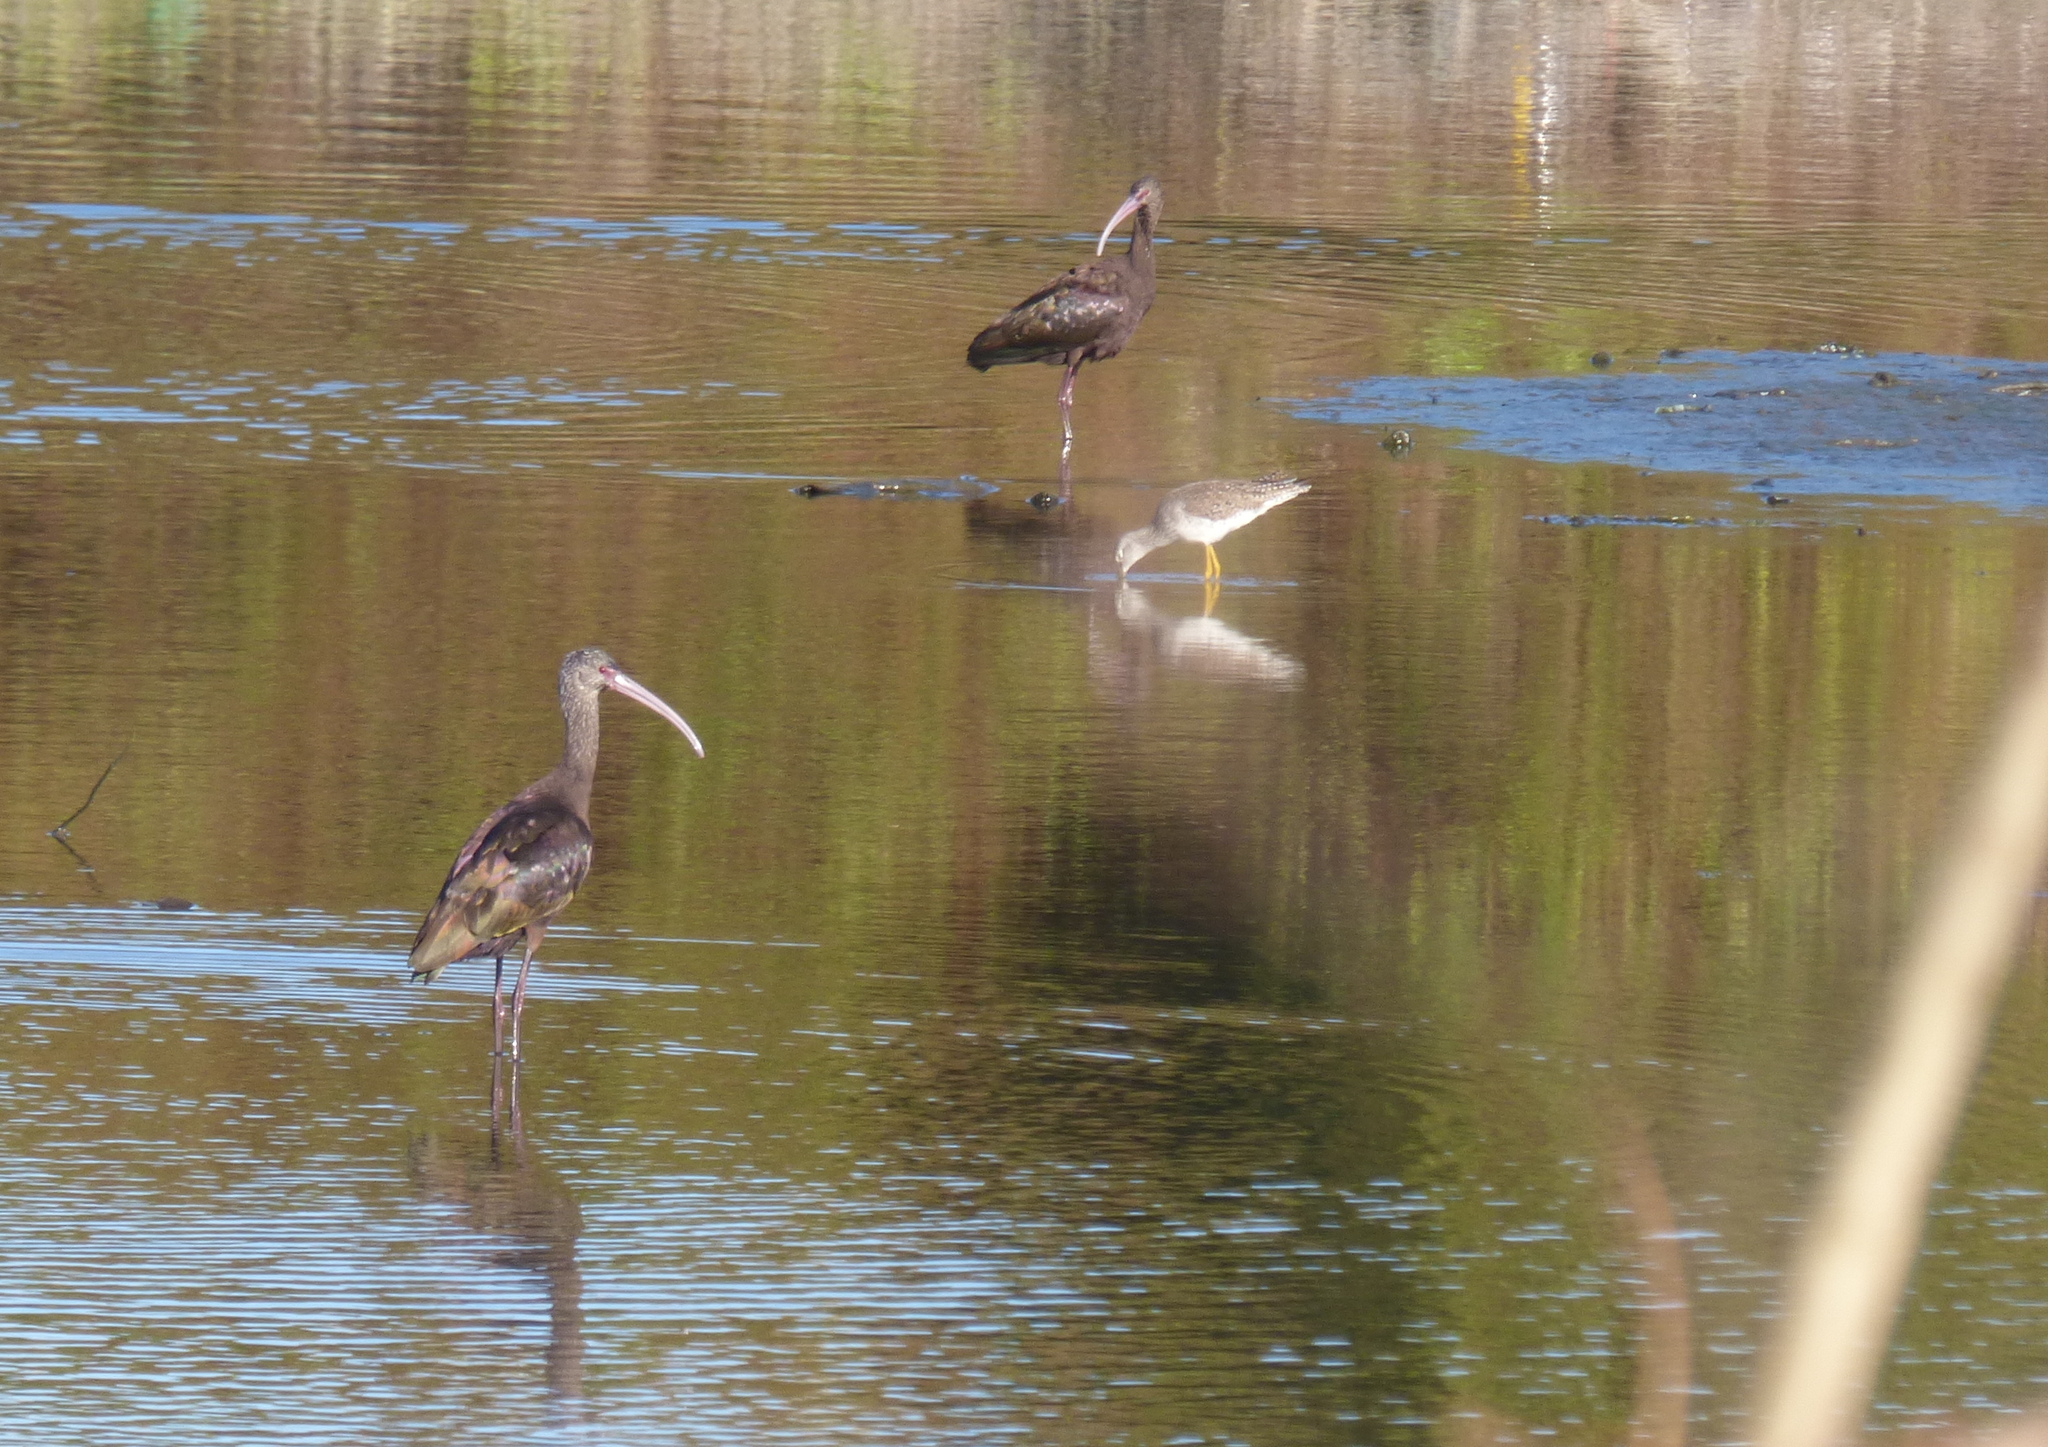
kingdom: Animalia
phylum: Chordata
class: Aves
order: Pelecaniformes
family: Threskiornithidae
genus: Plegadis
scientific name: Plegadis chihi
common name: White-faced ibis
